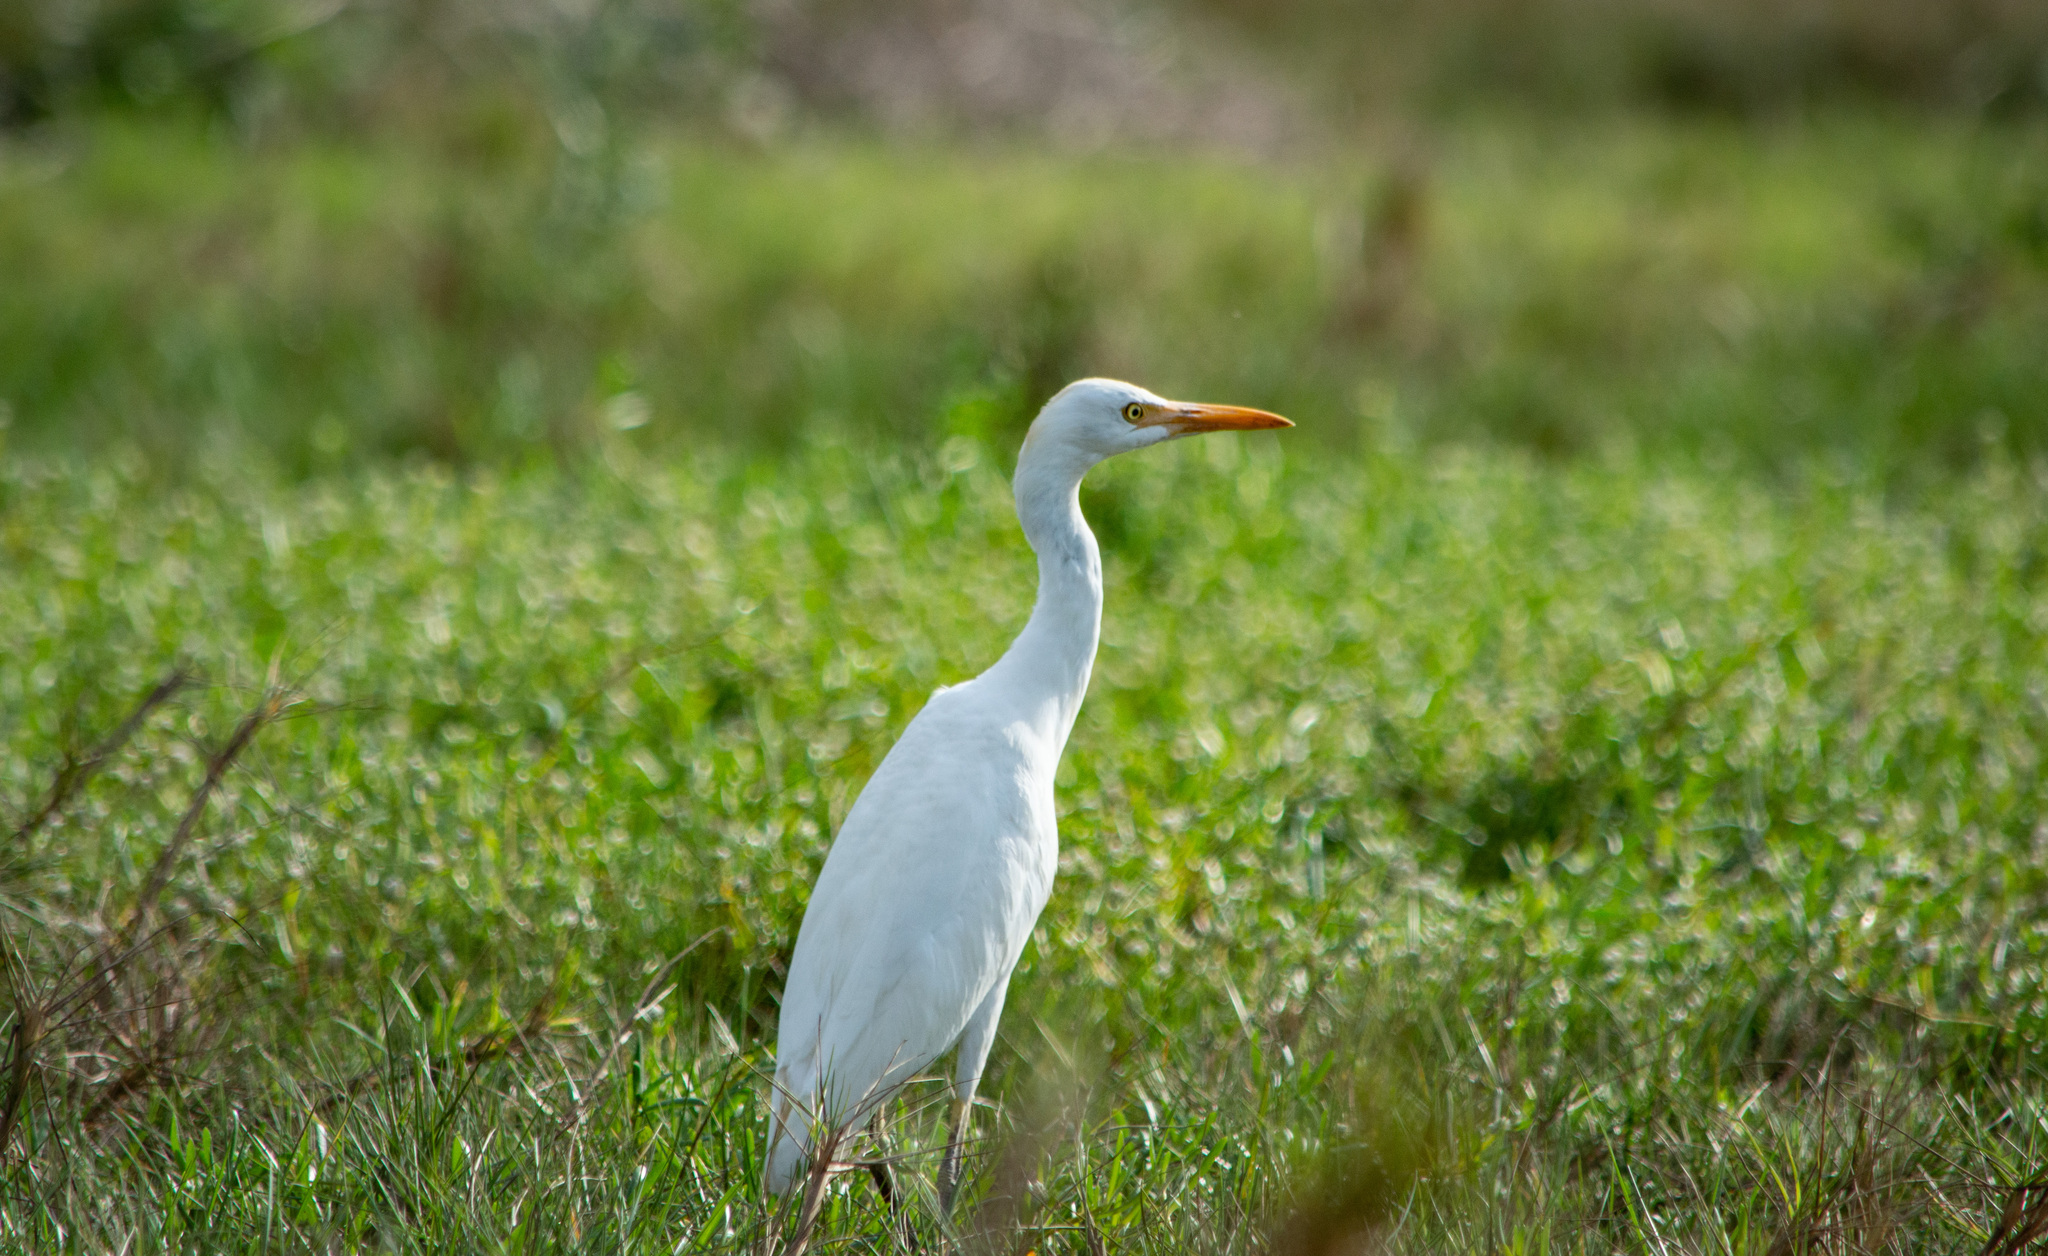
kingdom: Animalia
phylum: Chordata
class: Aves
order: Pelecaniformes
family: Ardeidae
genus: Bubulcus
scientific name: Bubulcus ibis
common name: Cattle egret
